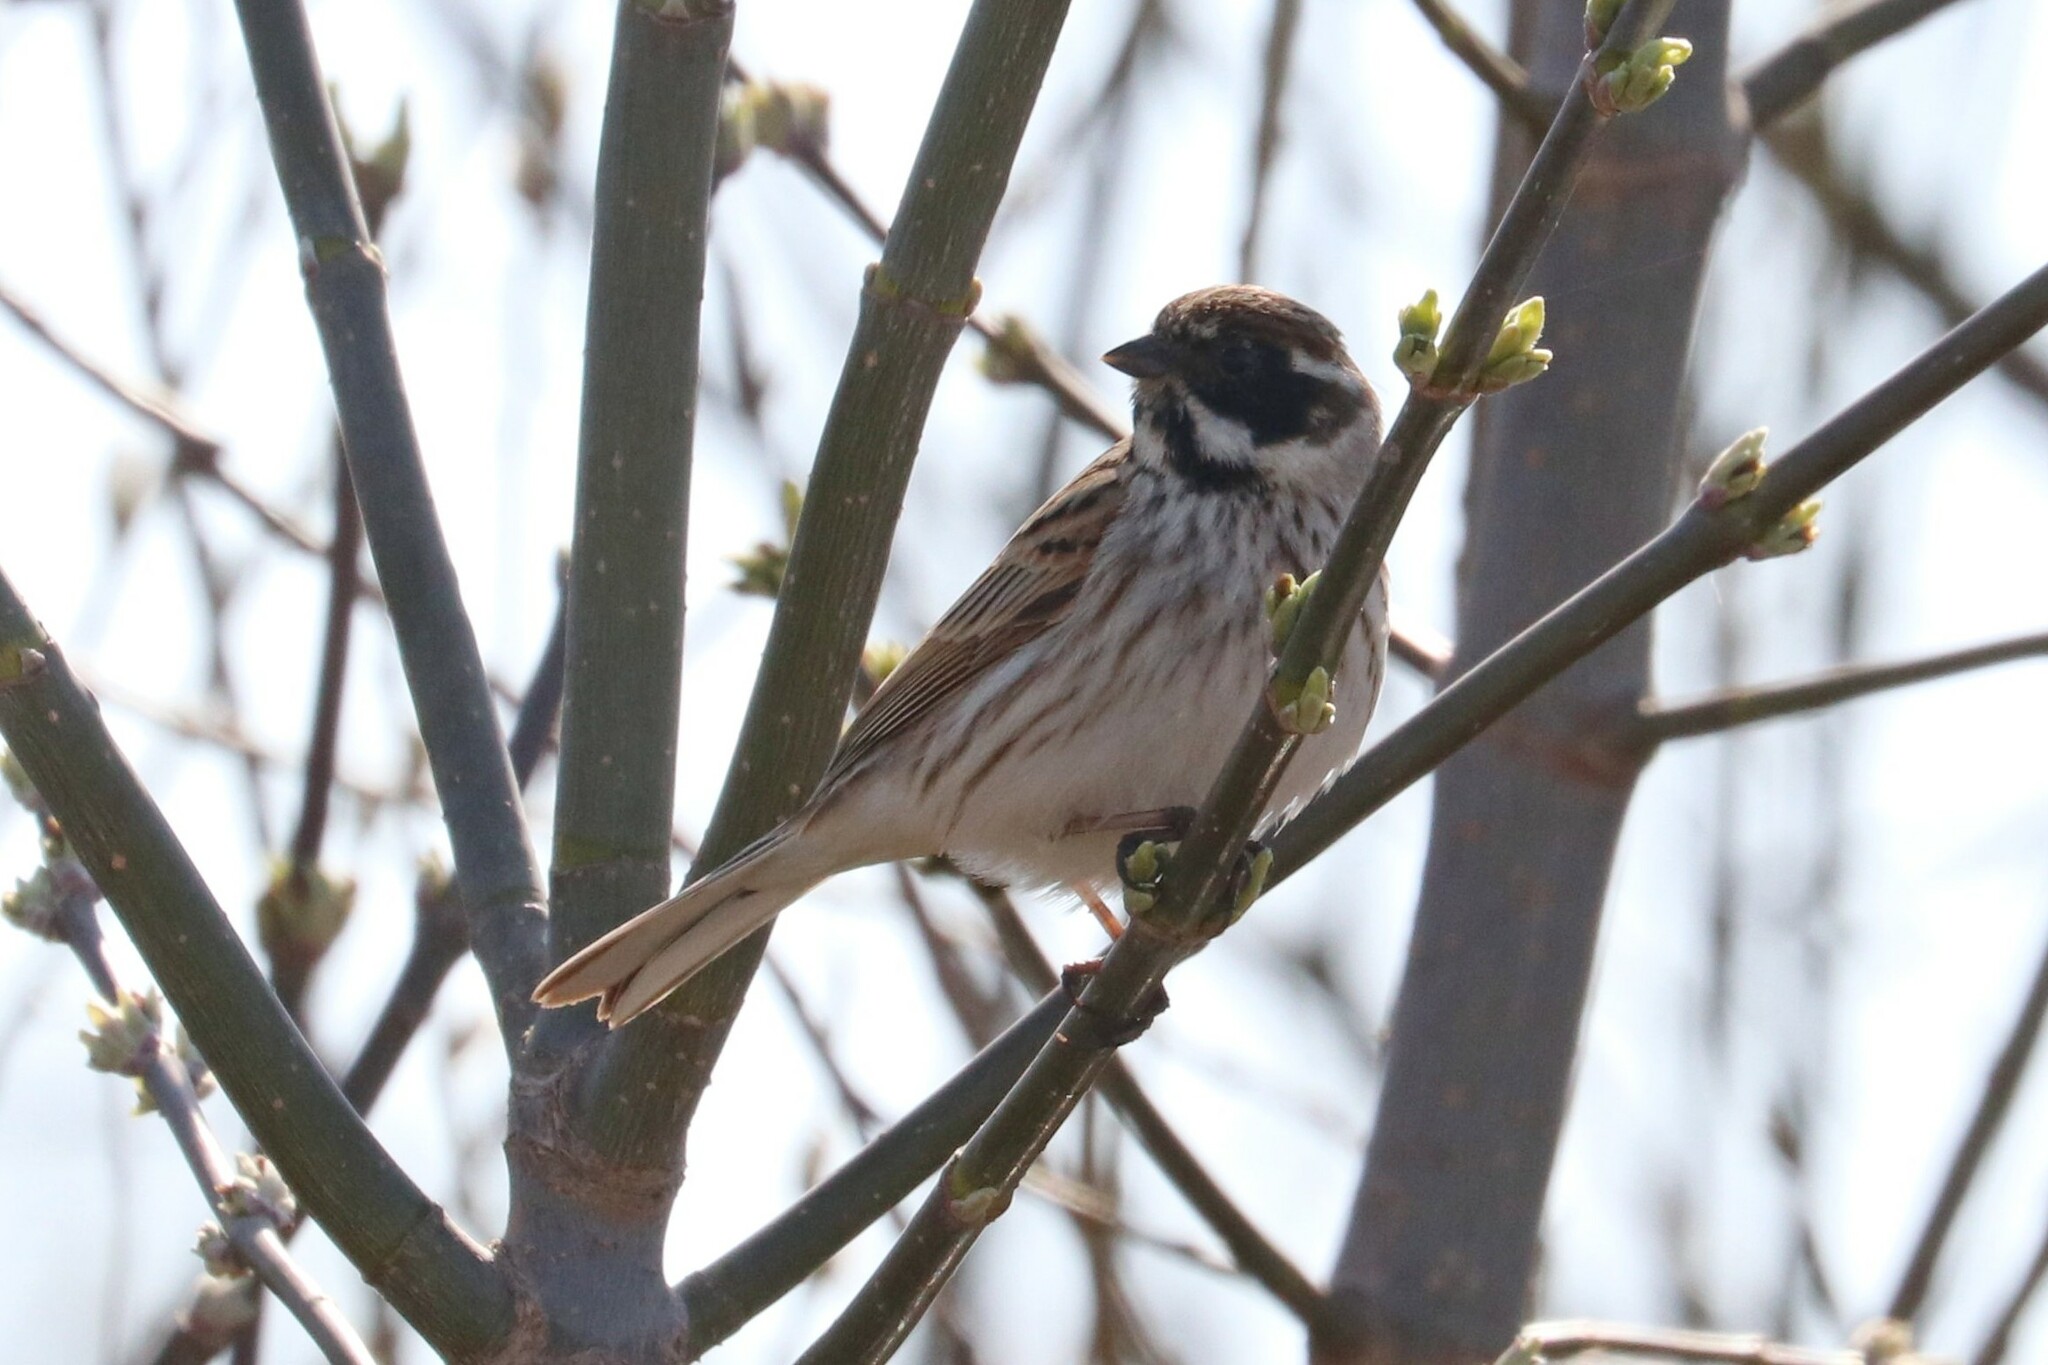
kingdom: Animalia
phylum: Chordata
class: Aves
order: Passeriformes
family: Emberizidae
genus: Emberiza
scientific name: Emberiza schoeniclus
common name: Reed bunting
